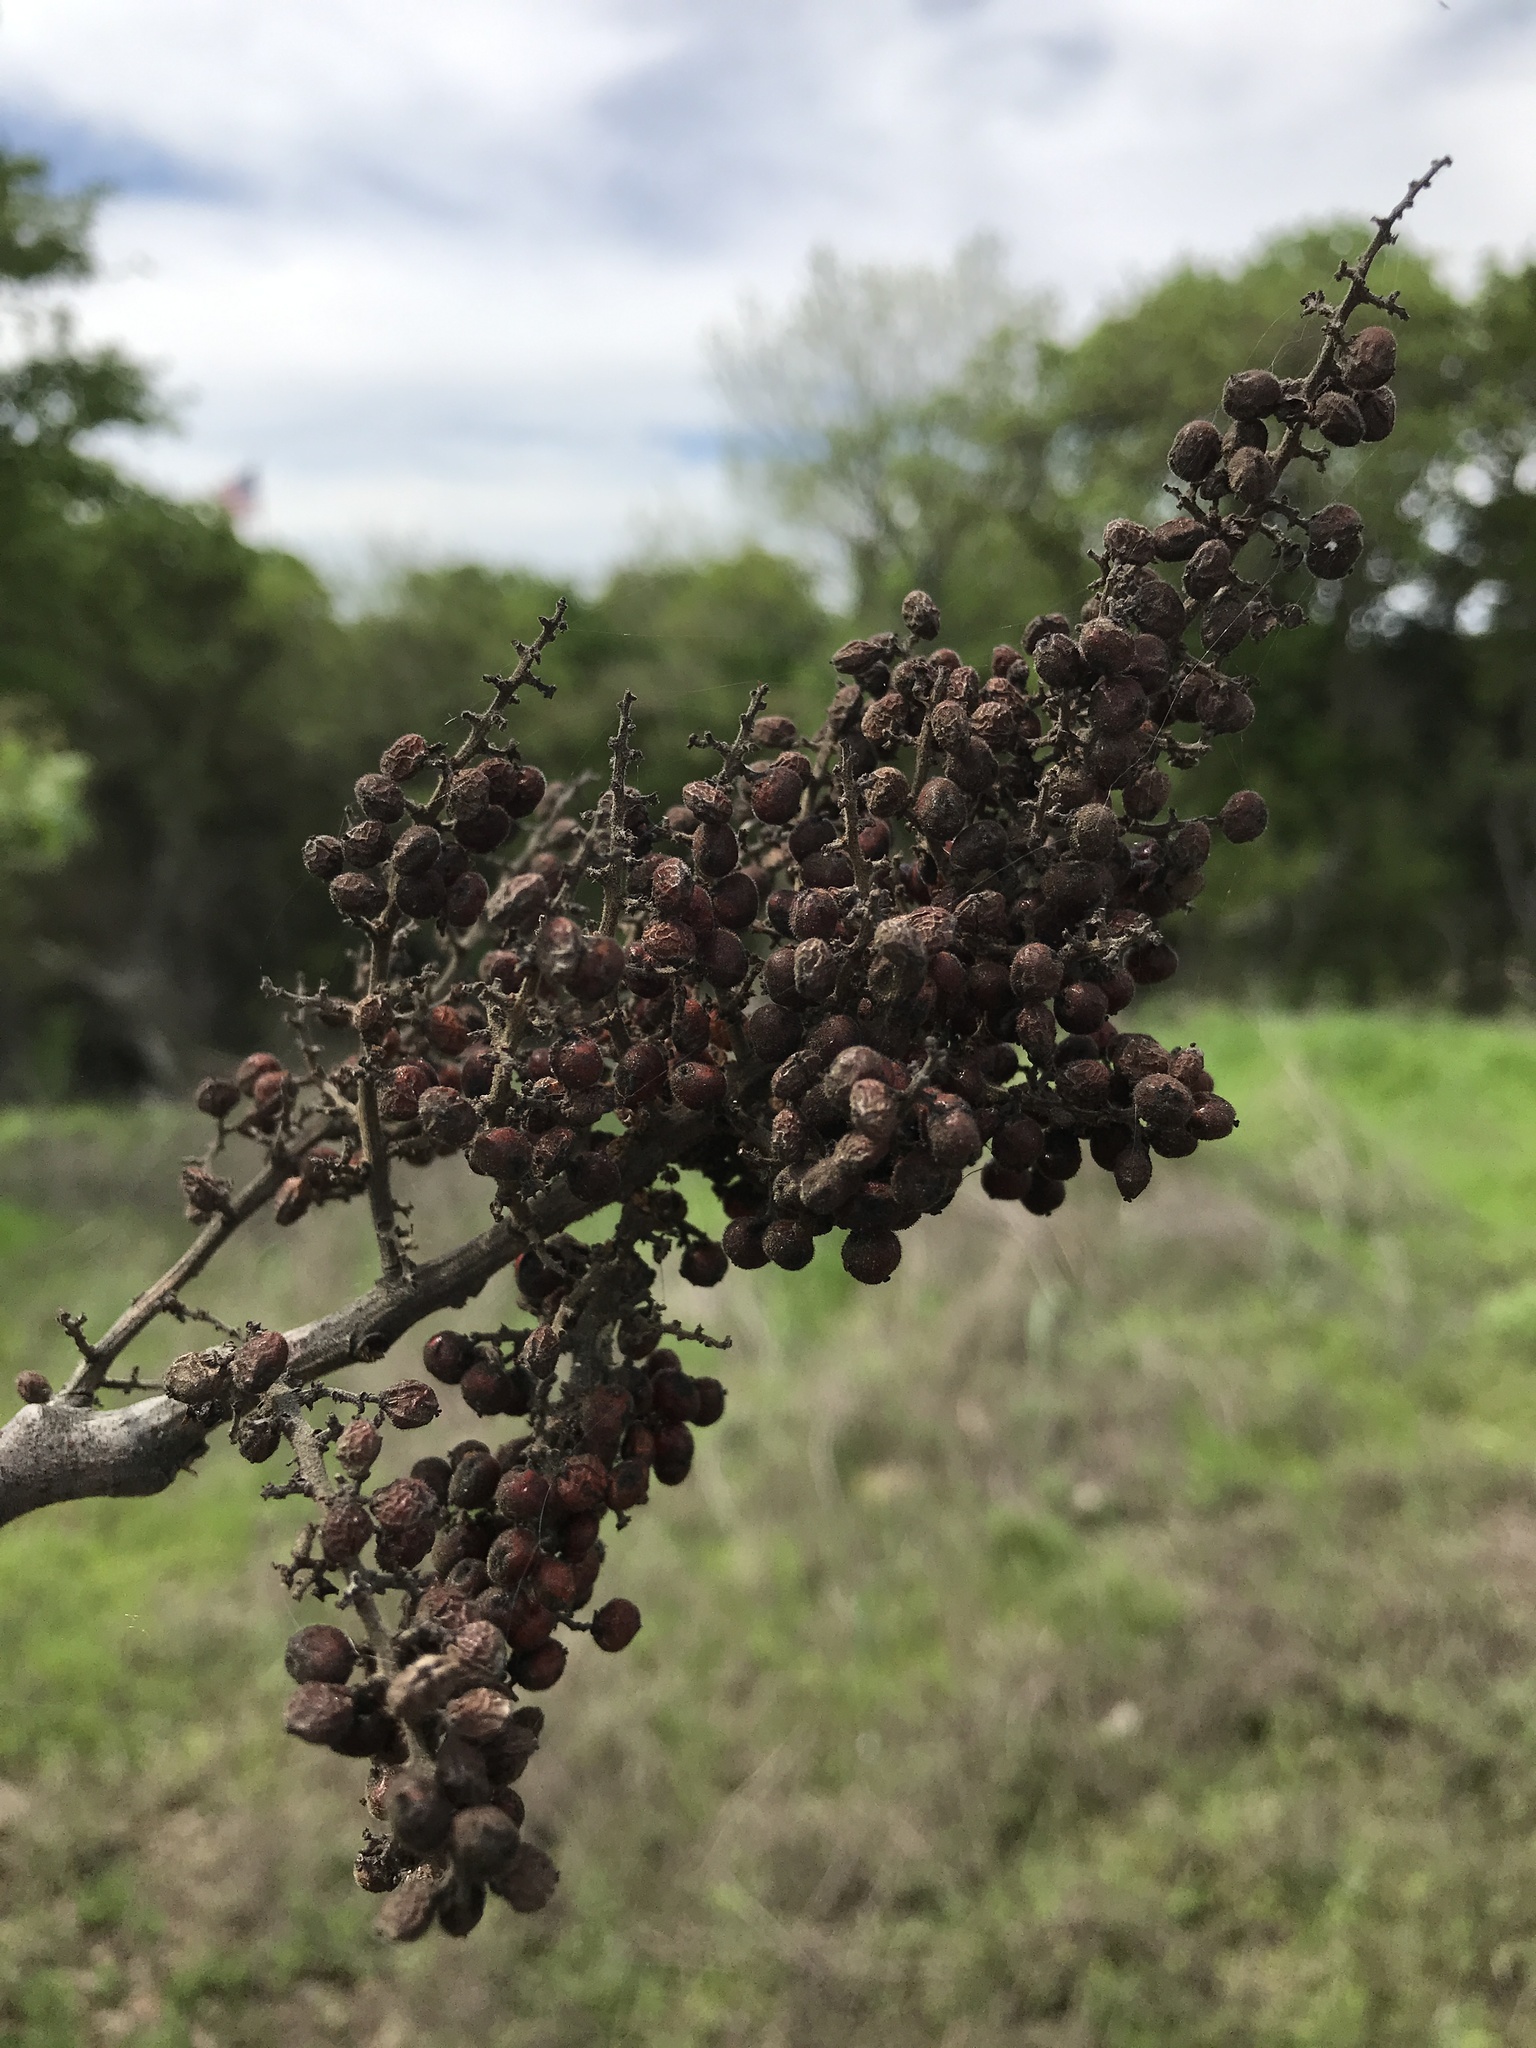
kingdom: Plantae
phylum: Tracheophyta
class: Magnoliopsida
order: Sapindales
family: Anacardiaceae
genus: Rhus
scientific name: Rhus lanceolata
